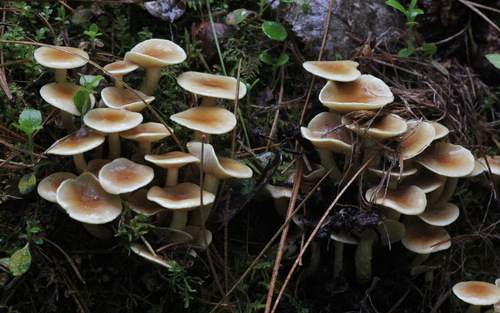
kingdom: Fungi
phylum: Basidiomycota
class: Agaricomycetes
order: Agaricales
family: Strophariaceae
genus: Hypholoma
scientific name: Hypholoma fasciculare
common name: Sulphur tuft
